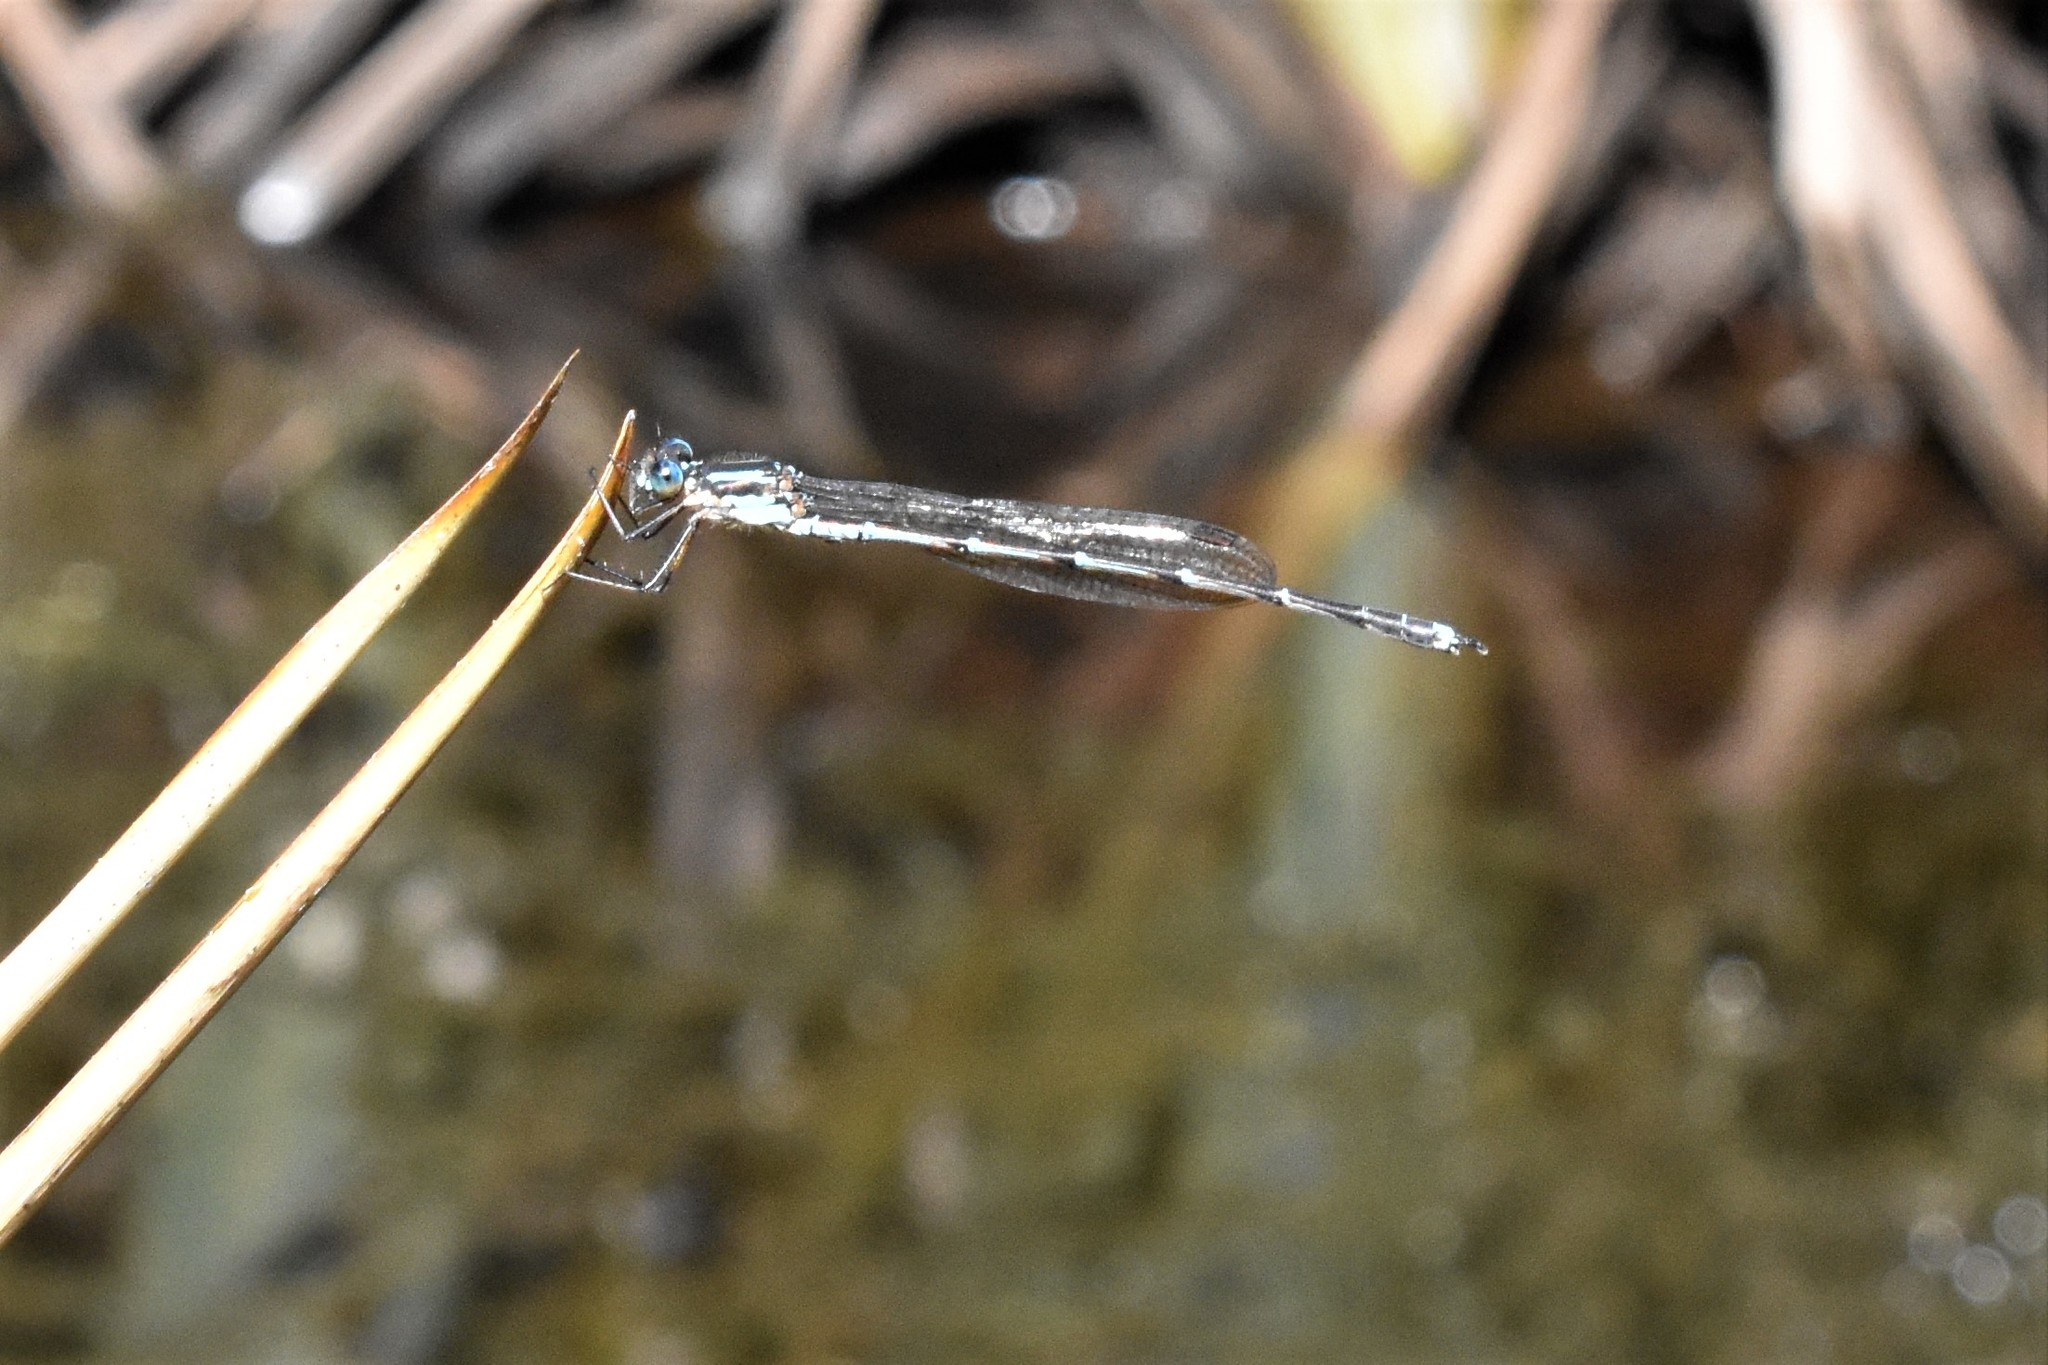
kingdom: Animalia
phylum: Arthropoda
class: Insecta
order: Odonata
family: Lestidae
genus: Austrolestes
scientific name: Austrolestes colensonis
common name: Blue damselfly
